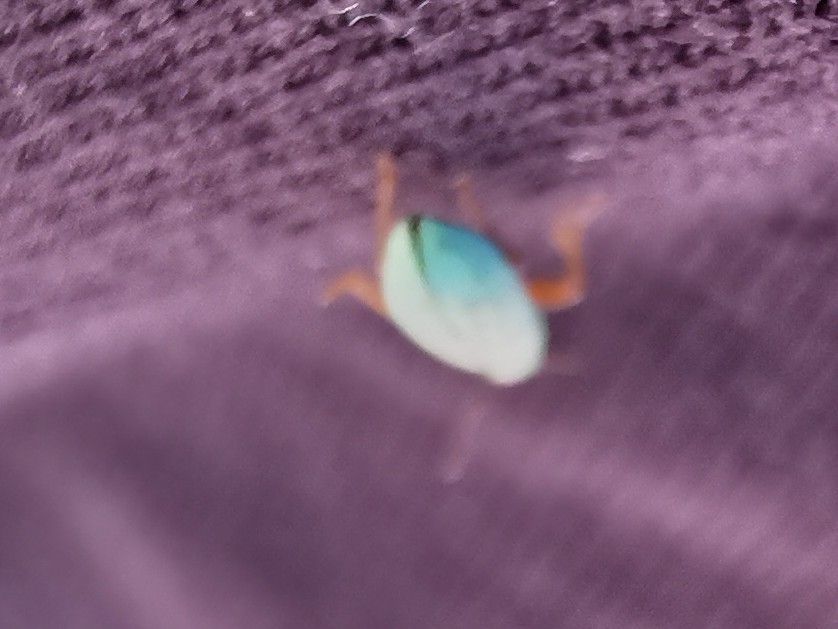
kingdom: Animalia
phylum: Arthropoda
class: Insecta
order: Coleoptera
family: Curculionidae
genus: Polydrusus
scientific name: Polydrusus impressifrons
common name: Weevil
